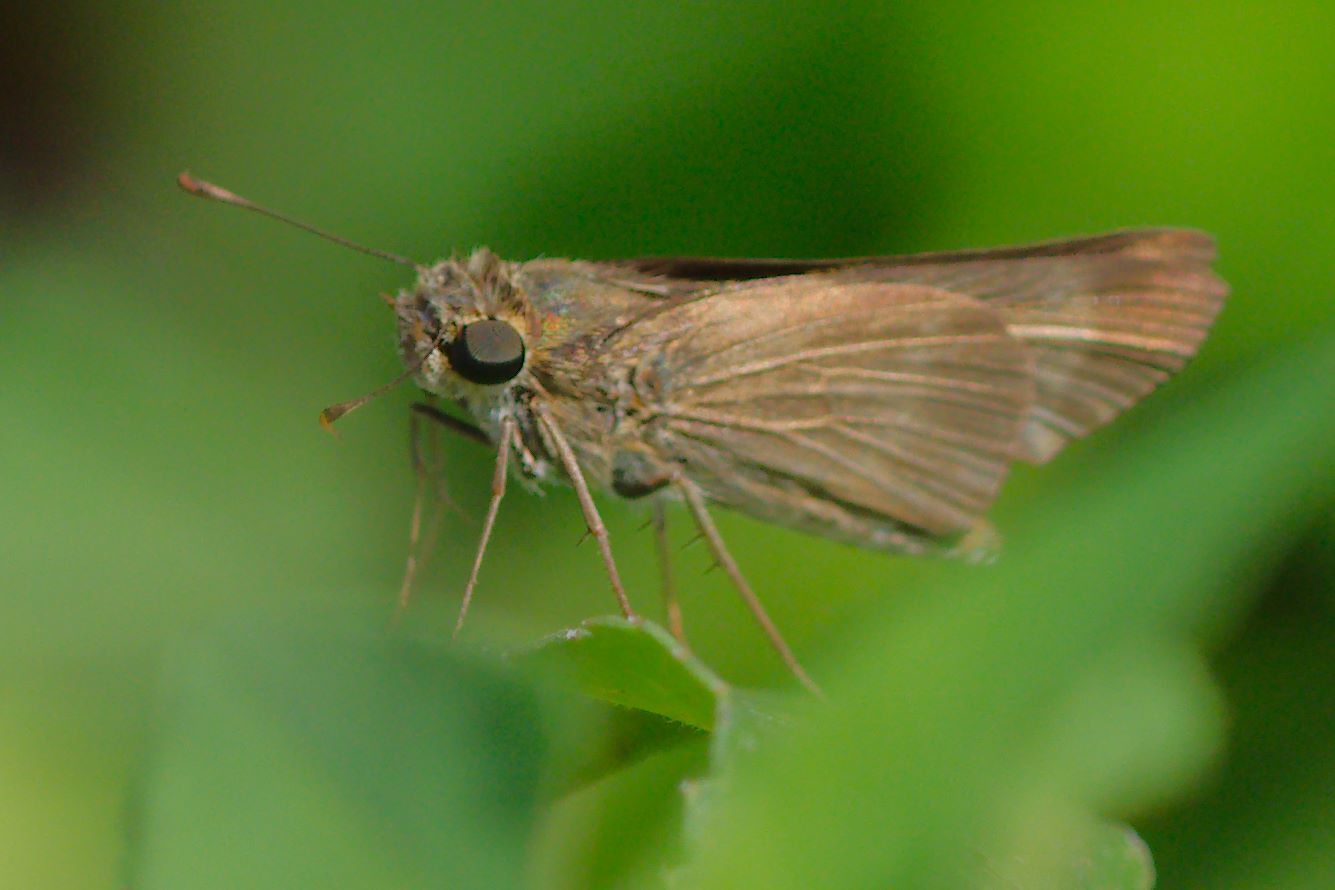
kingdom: Animalia
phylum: Arthropoda
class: Insecta
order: Lepidoptera
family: Hesperiidae
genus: Panoquina
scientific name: Panoquina ocola
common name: Ocola skipper
